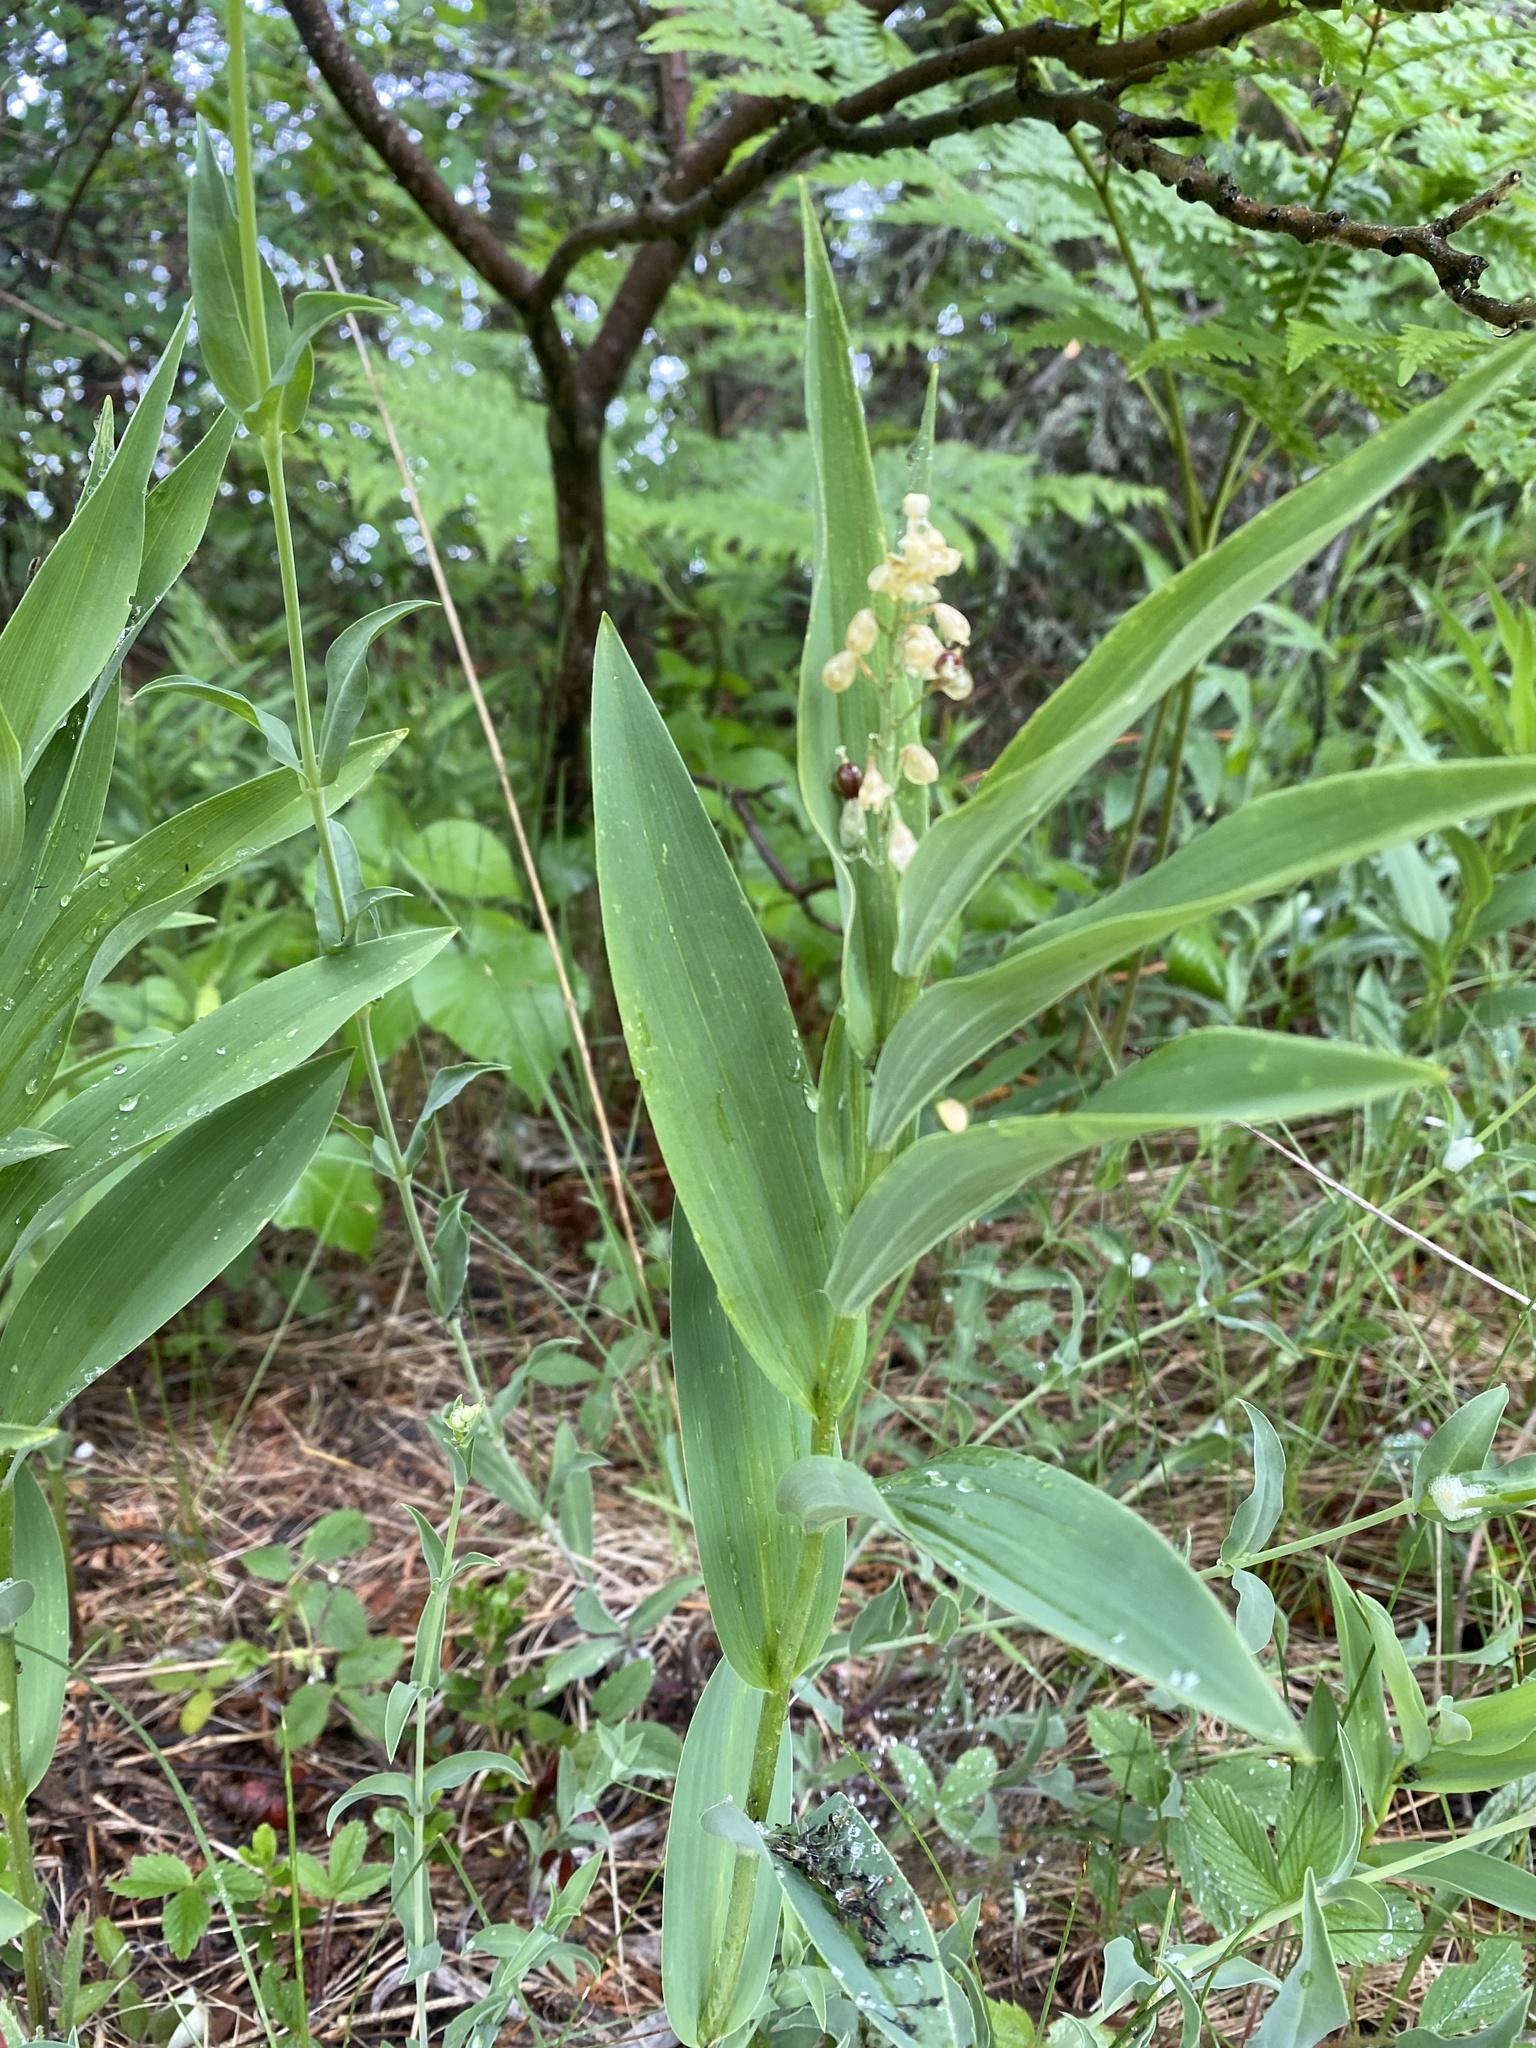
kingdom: Plantae
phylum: Tracheophyta
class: Liliopsida
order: Asparagales
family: Asparagaceae
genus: Maianthemum
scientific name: Maianthemum stellatum
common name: Little false solomon's seal
